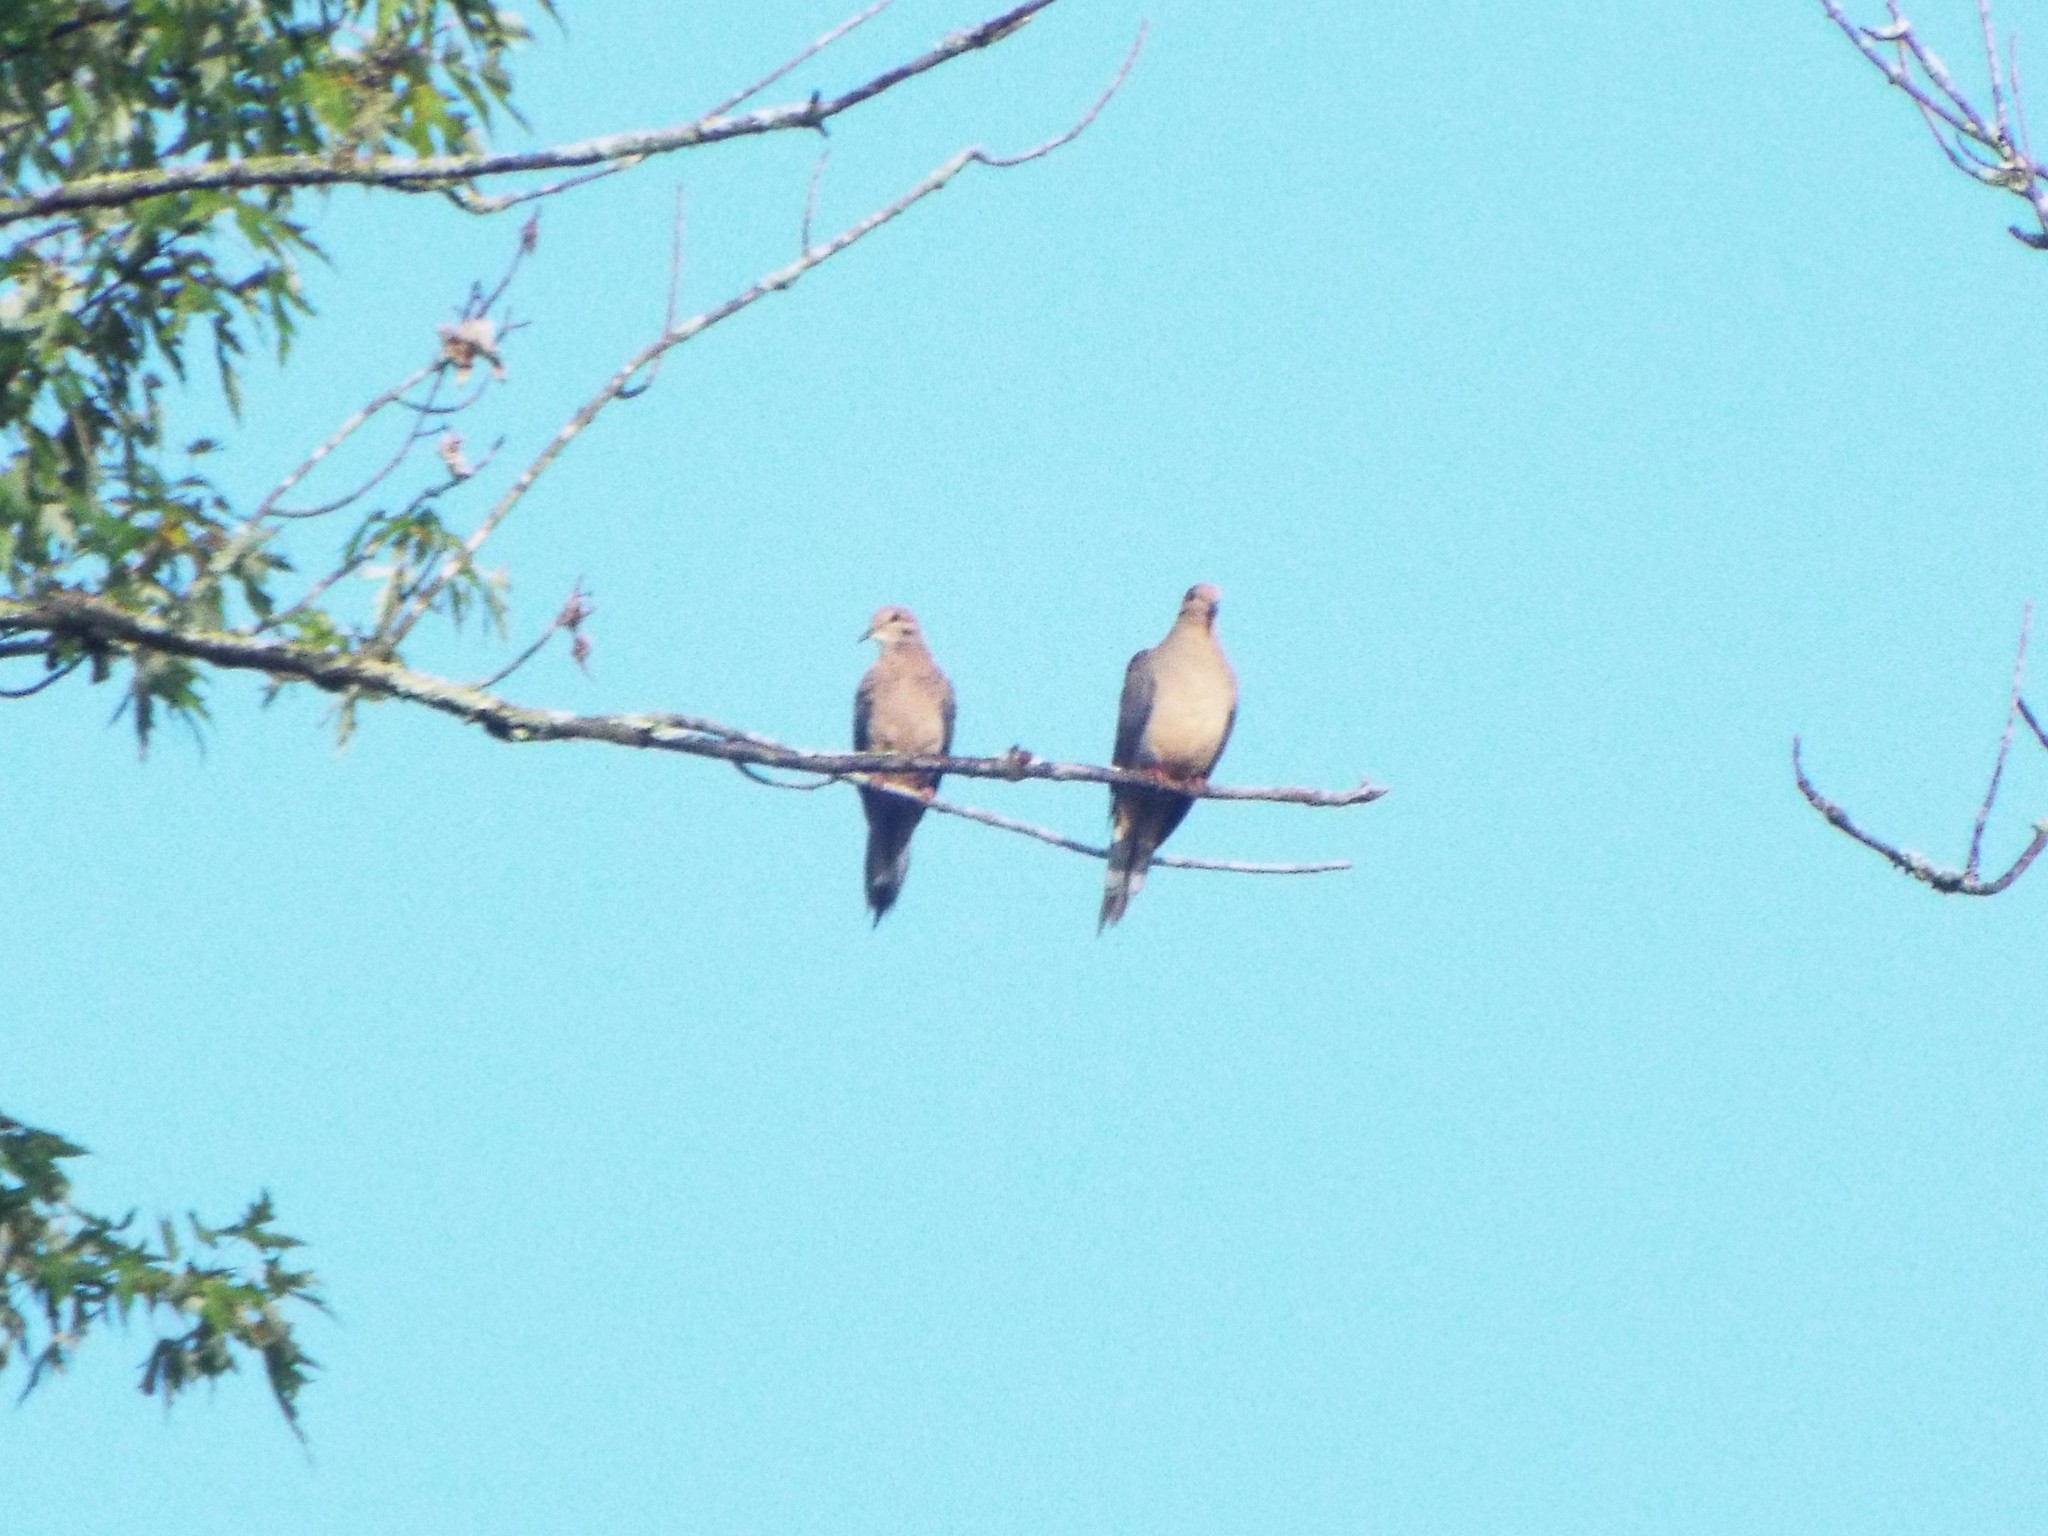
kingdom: Animalia
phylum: Chordata
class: Aves
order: Columbiformes
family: Columbidae
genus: Zenaida
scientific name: Zenaida macroura
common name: Mourning dove
